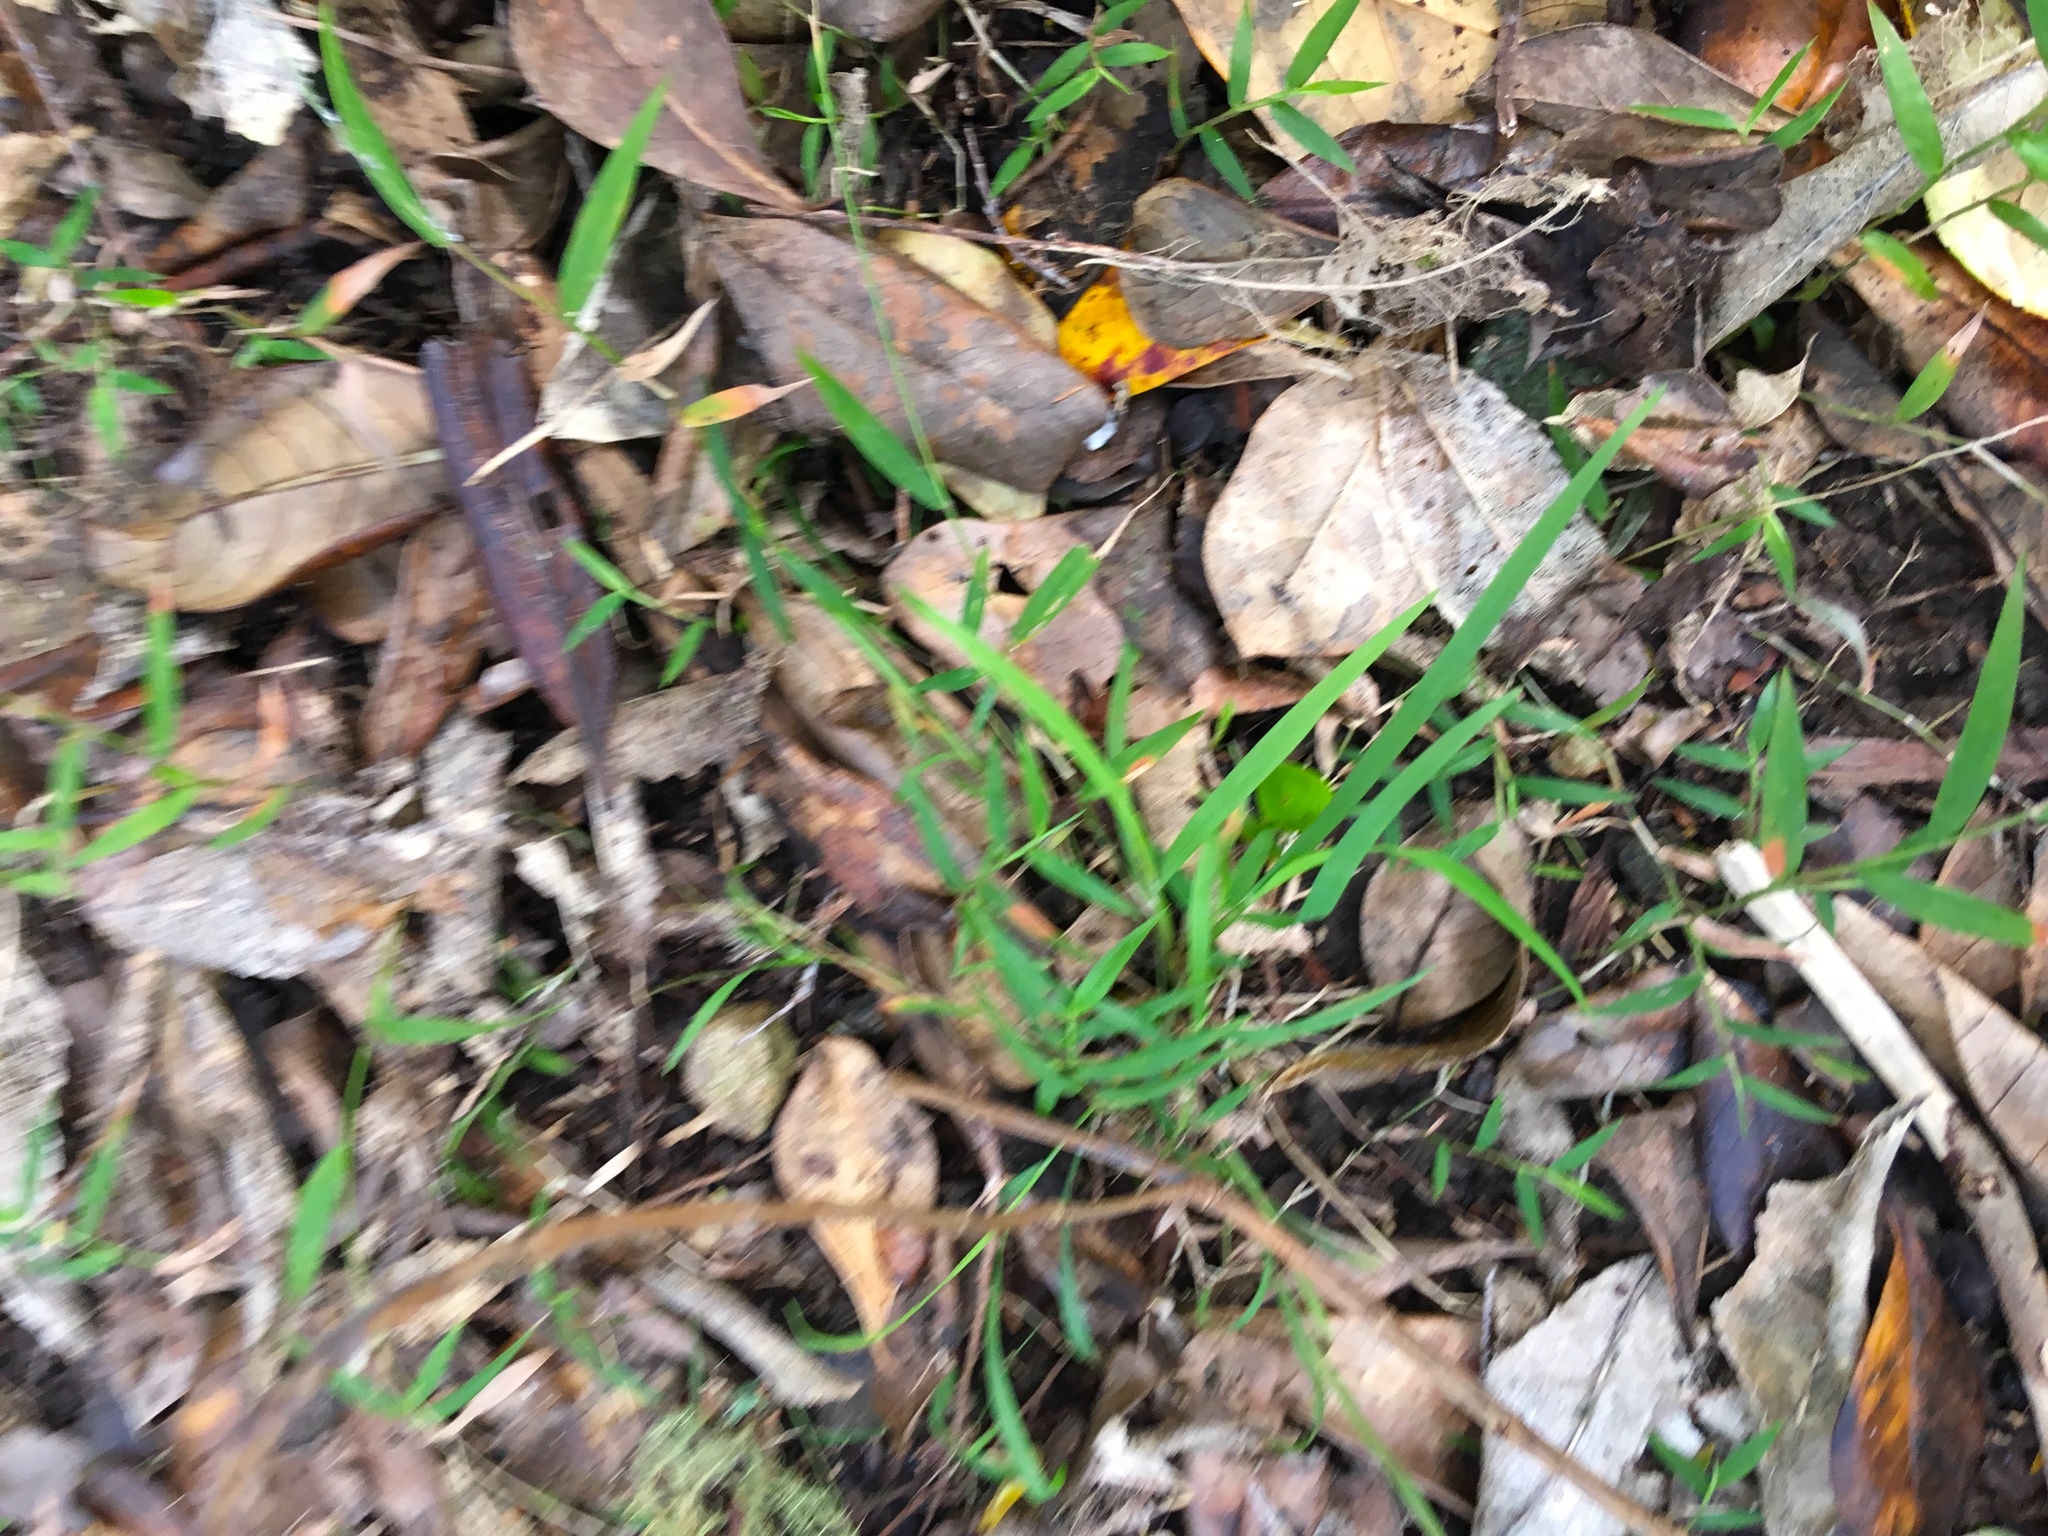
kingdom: Plantae
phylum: Tracheophyta
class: Liliopsida
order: Poales
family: Poaceae
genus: Ehrharta
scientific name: Ehrharta erecta
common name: Panic veldtgrass
